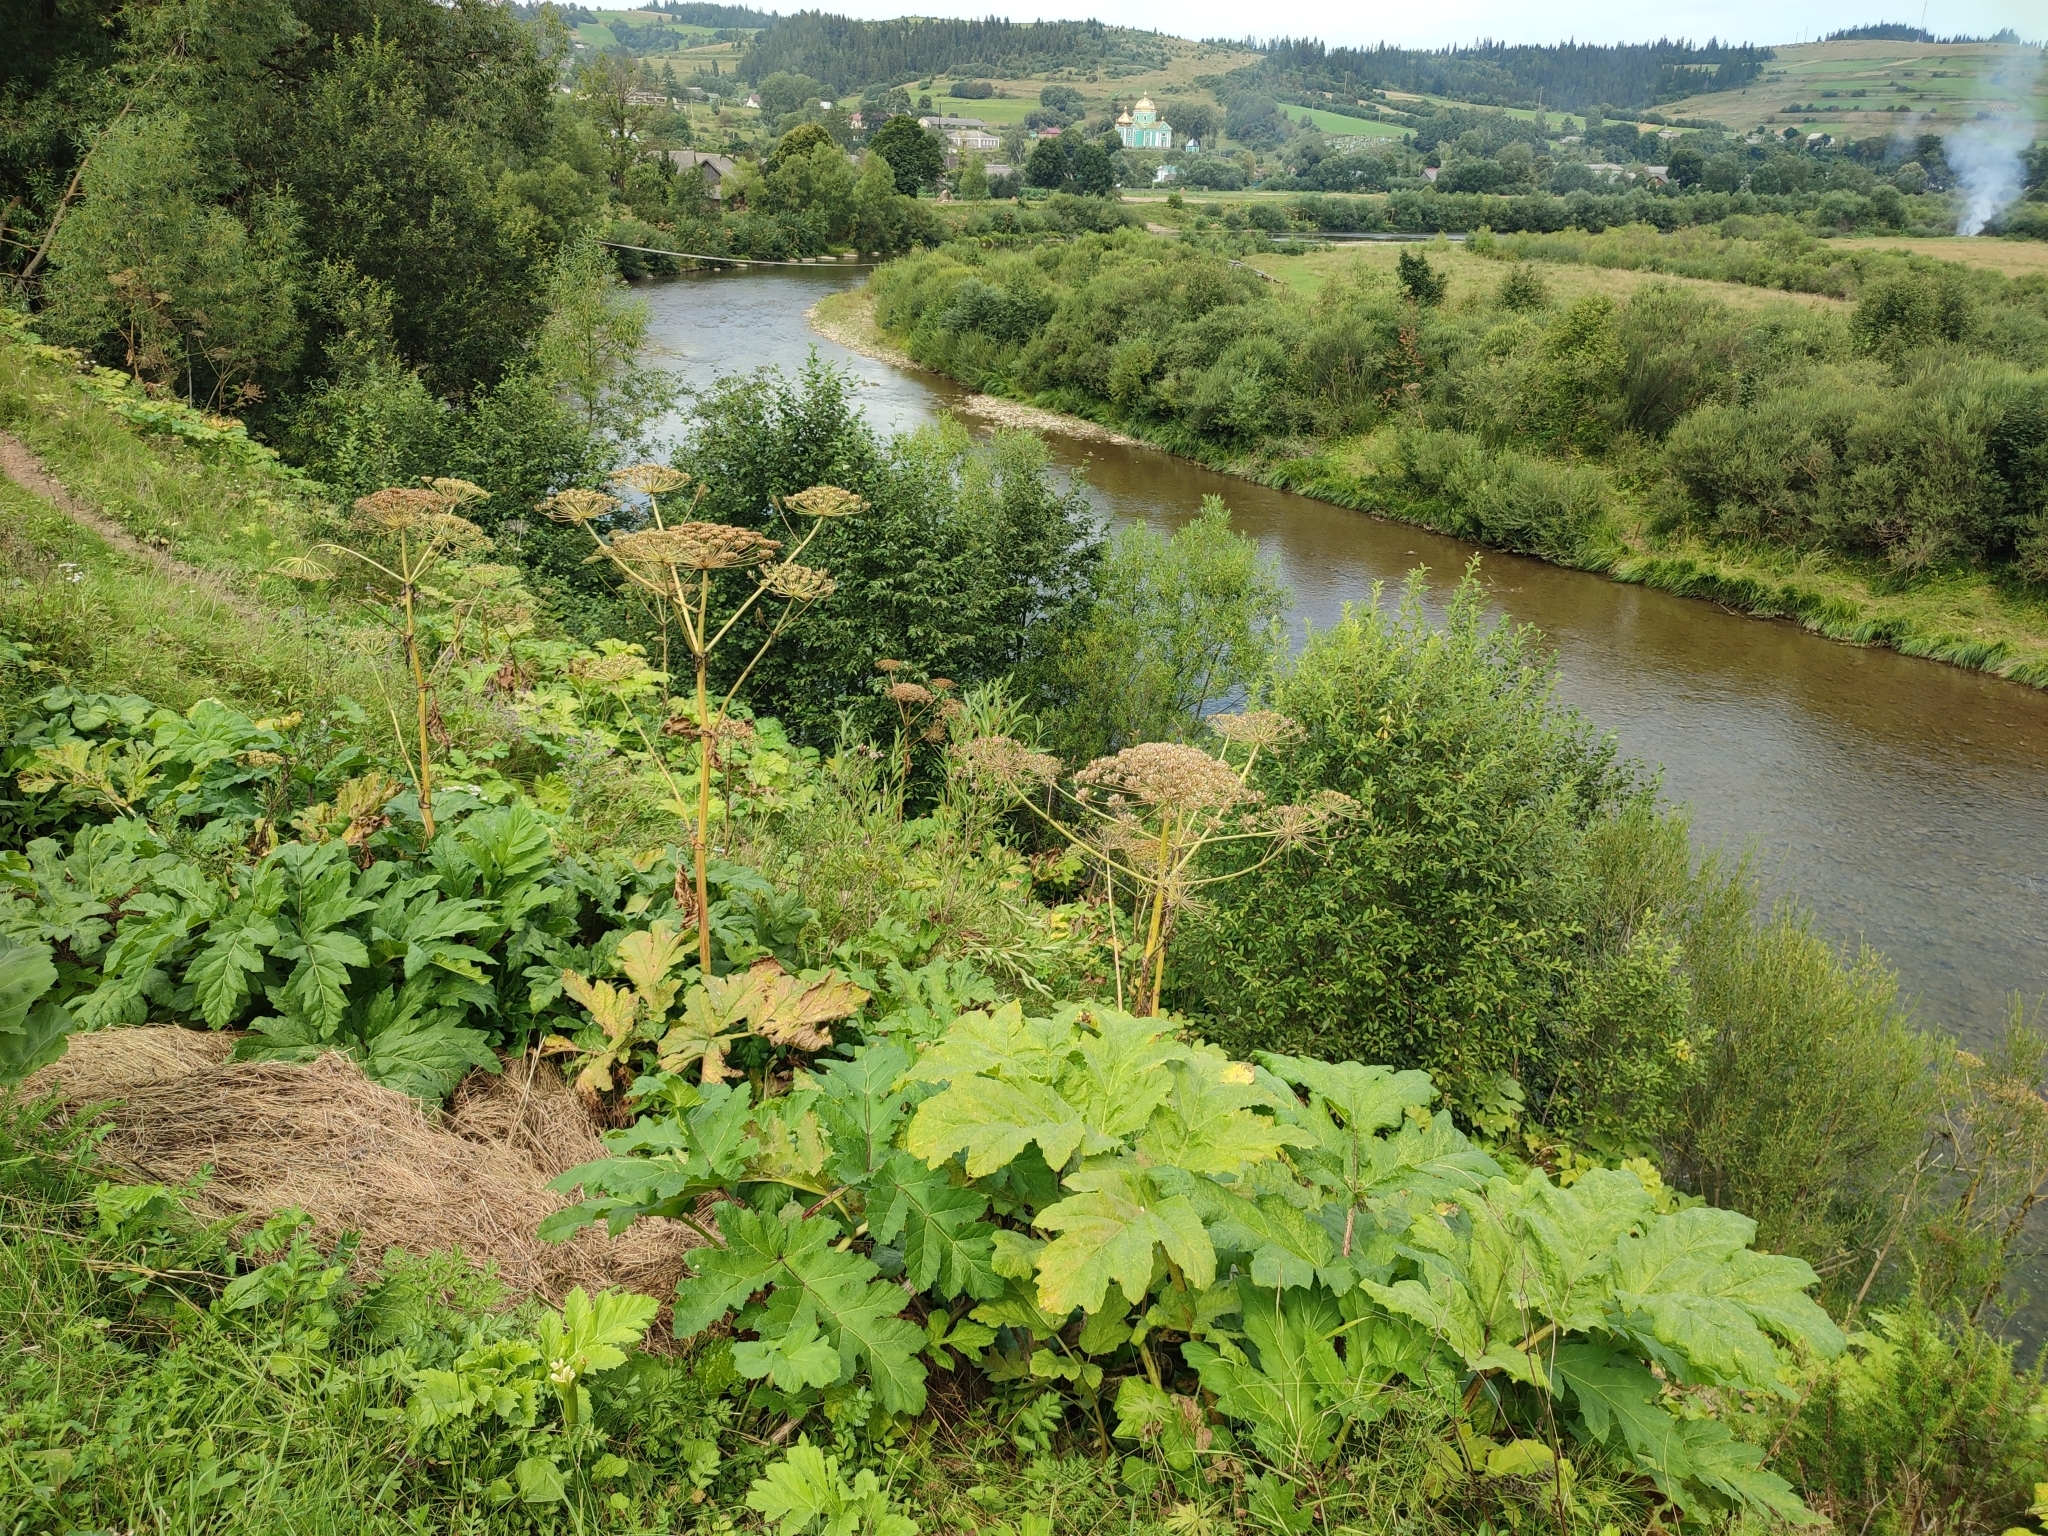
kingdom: Plantae
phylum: Tracheophyta
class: Magnoliopsida
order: Apiales
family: Apiaceae
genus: Heracleum
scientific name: Heracleum sosnowskyi
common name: Sosnowsky's hogweed
